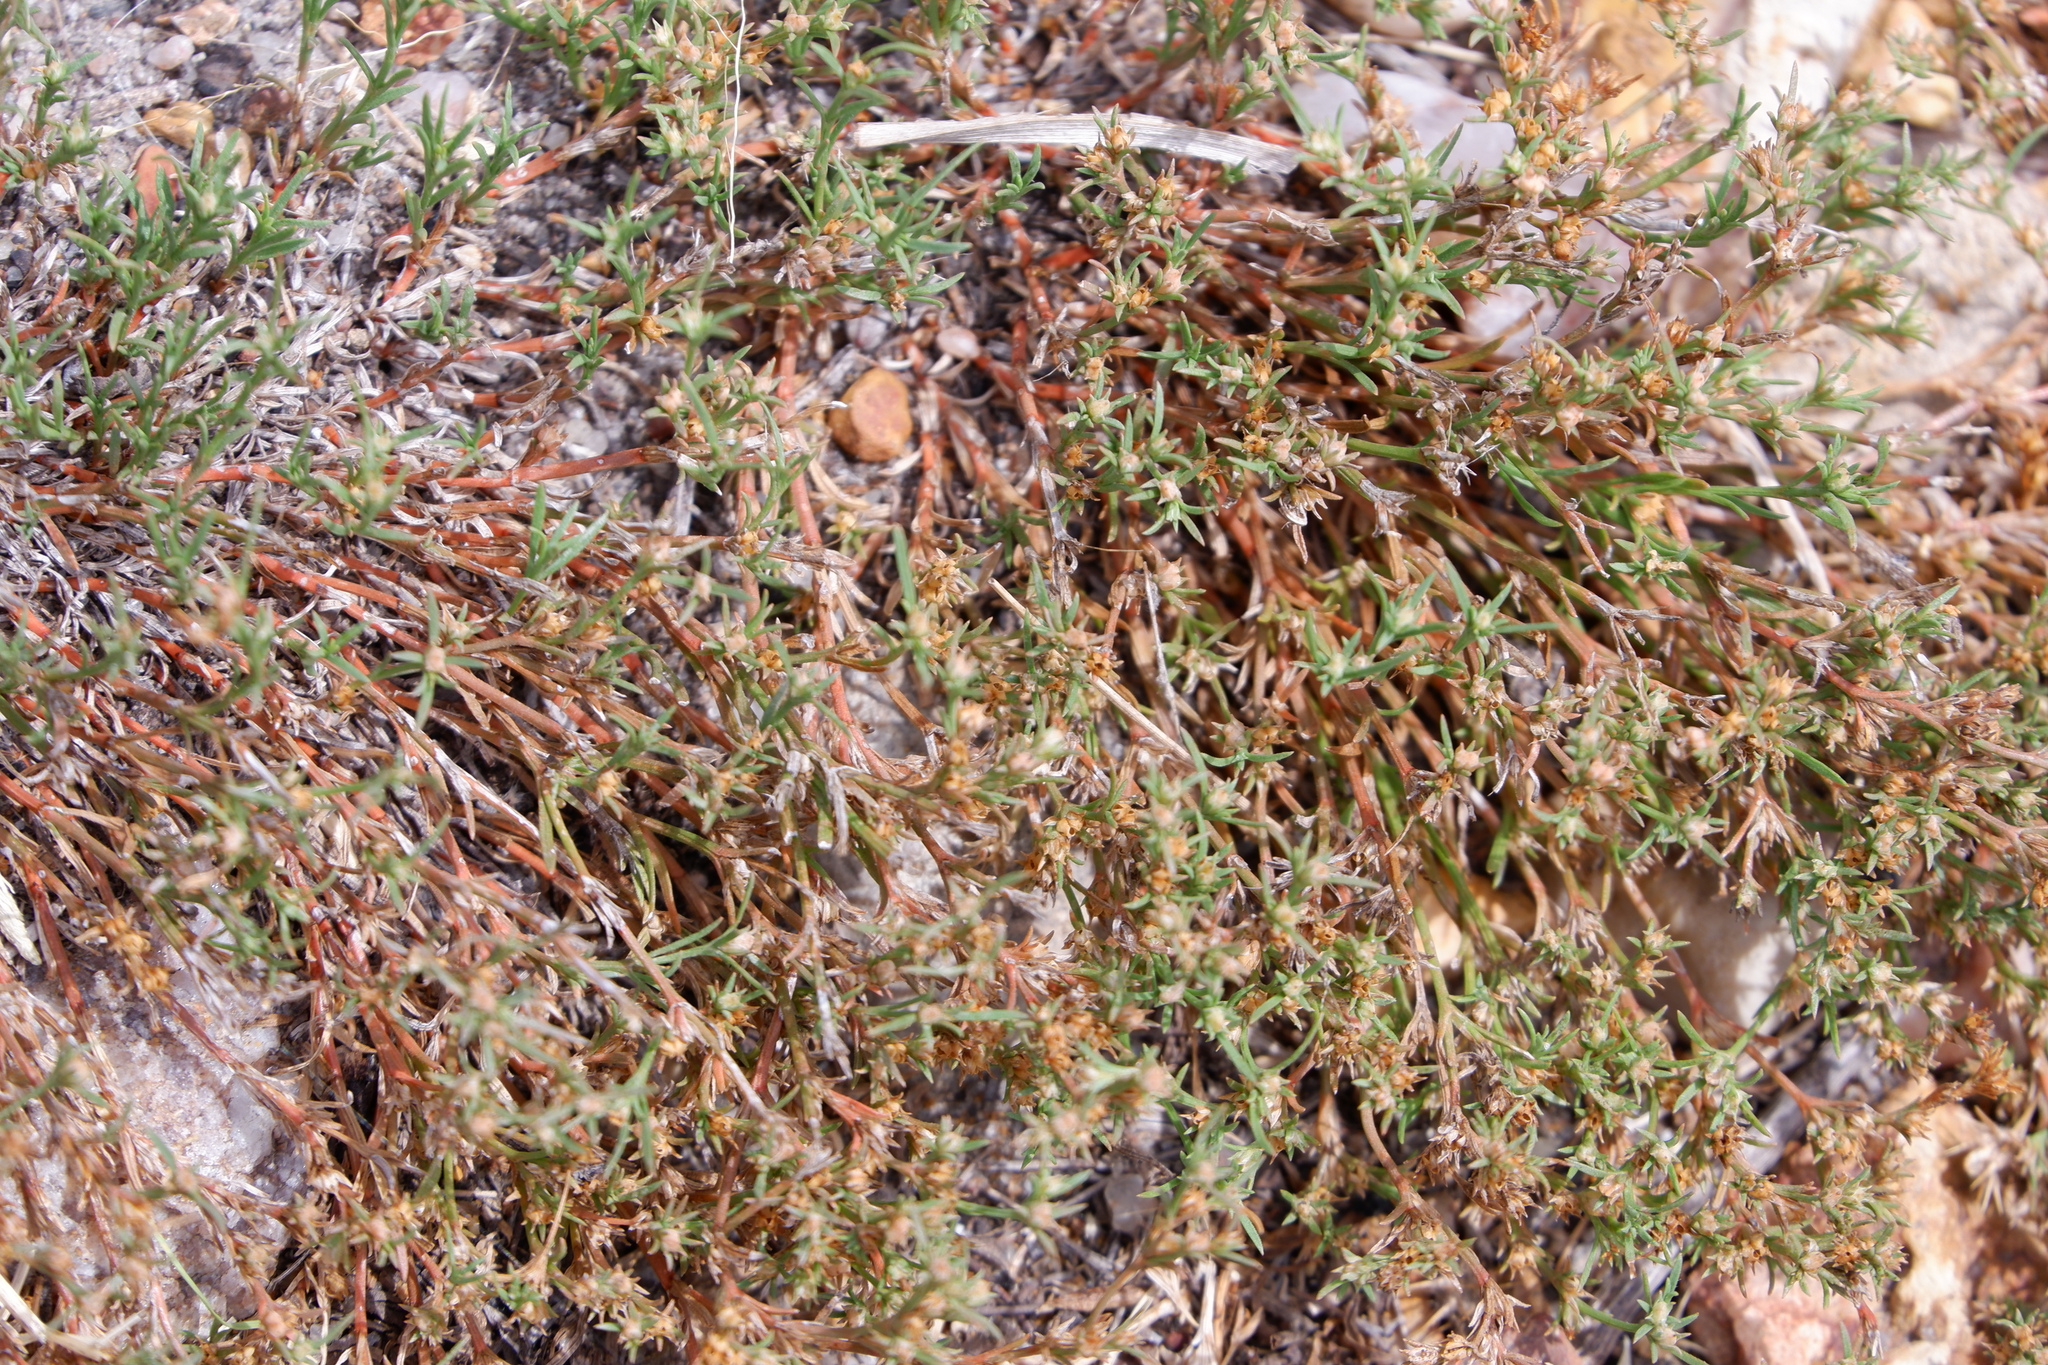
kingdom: Plantae
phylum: Tracheophyta
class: Magnoliopsida
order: Lamiales
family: Tetrachondraceae
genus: Polypremum
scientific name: Polypremum procumbens
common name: Juniper-leaf
